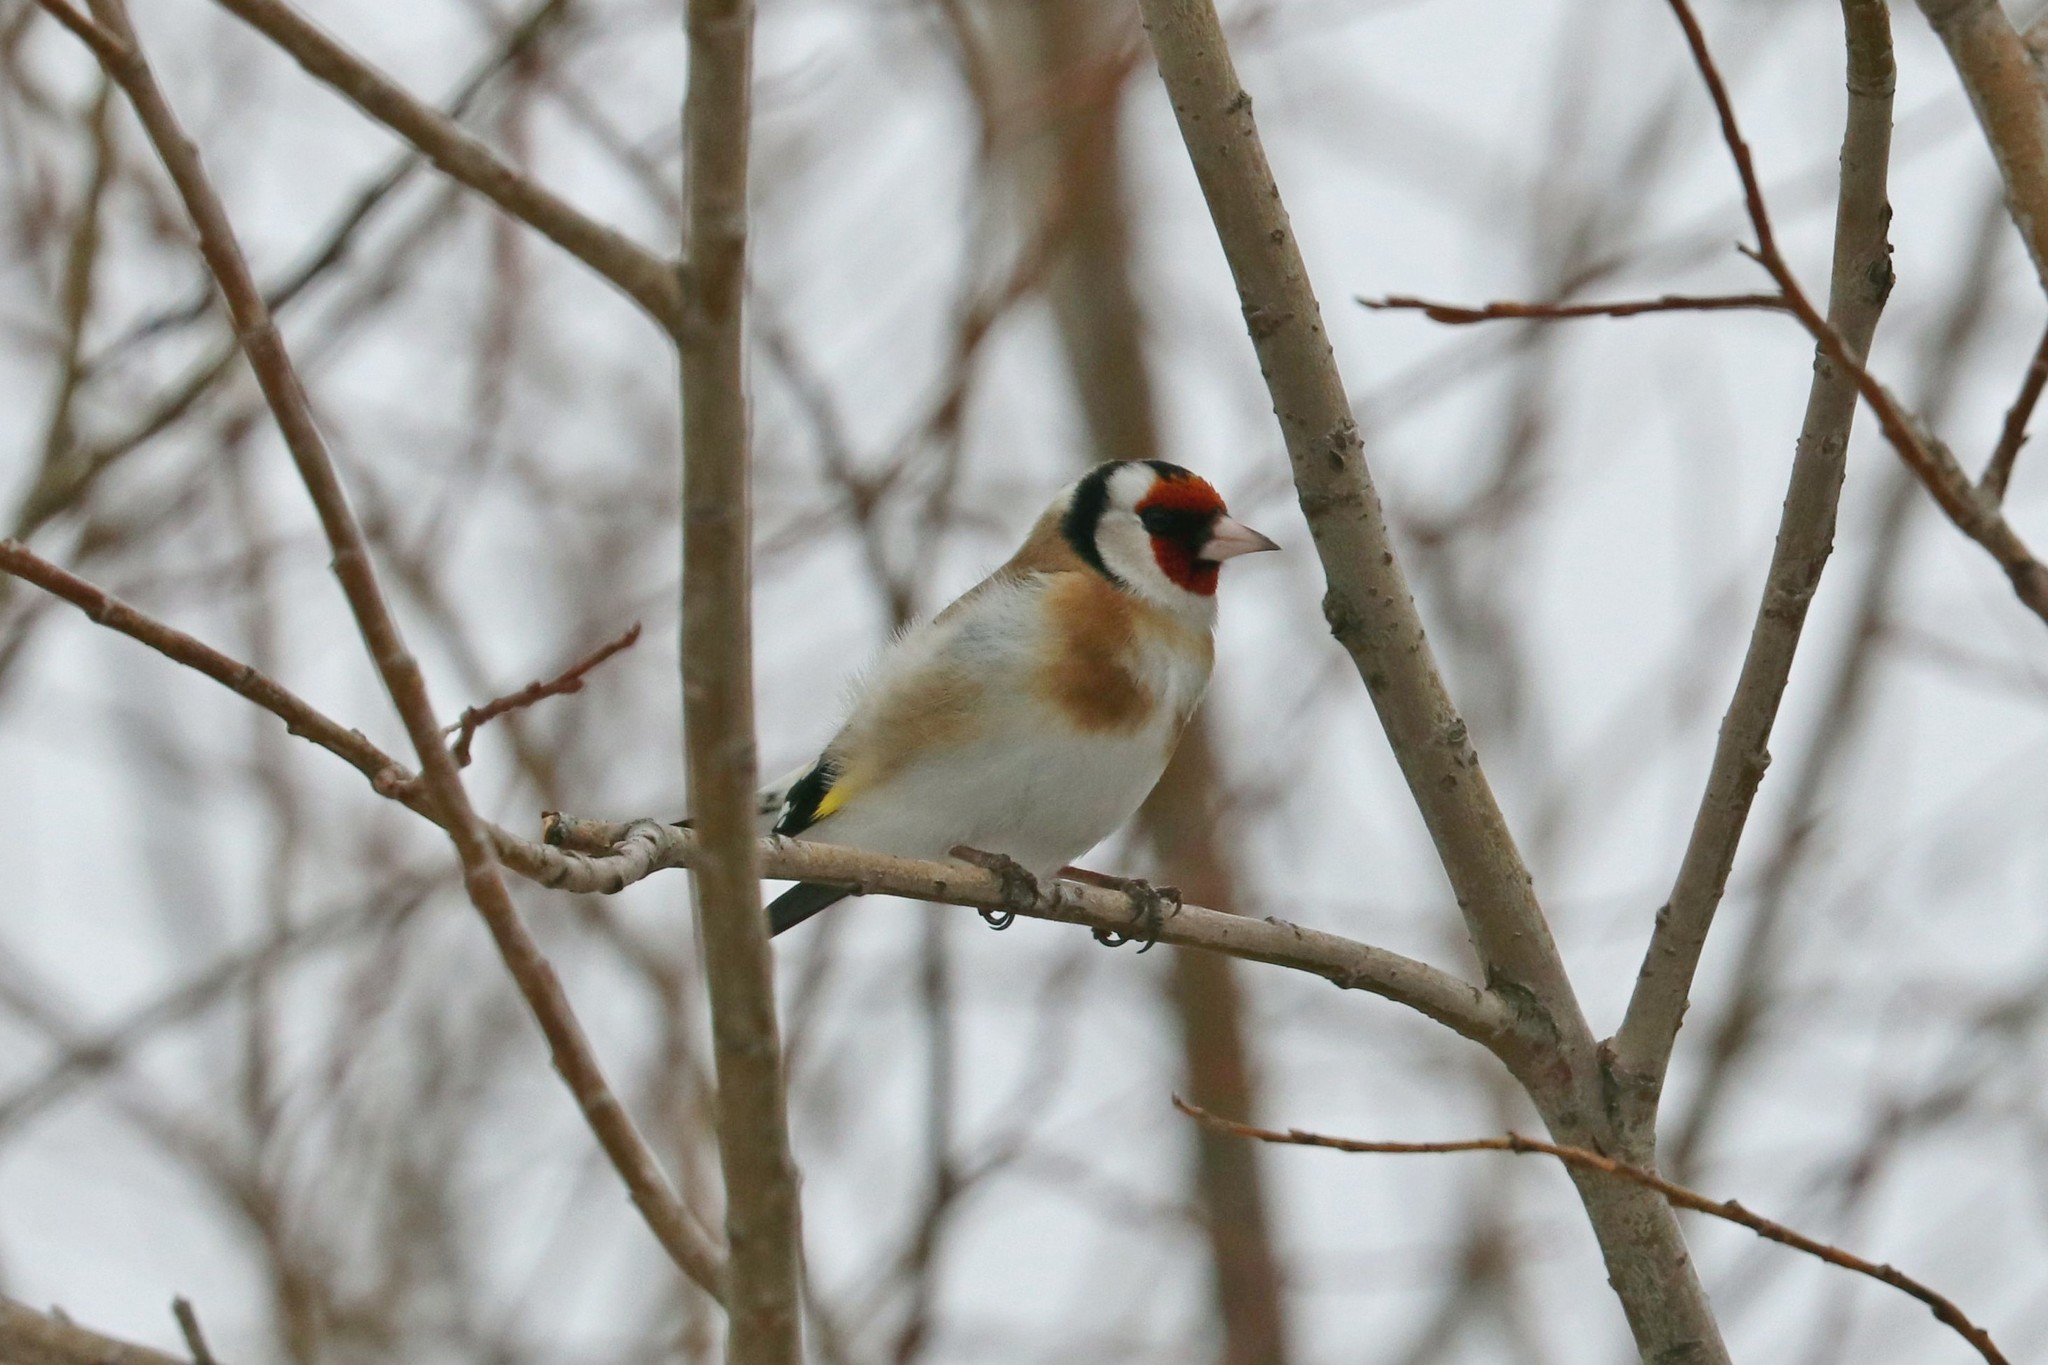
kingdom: Animalia
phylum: Chordata
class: Aves
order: Passeriformes
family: Fringillidae
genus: Carduelis
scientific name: Carduelis carduelis
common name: European goldfinch
